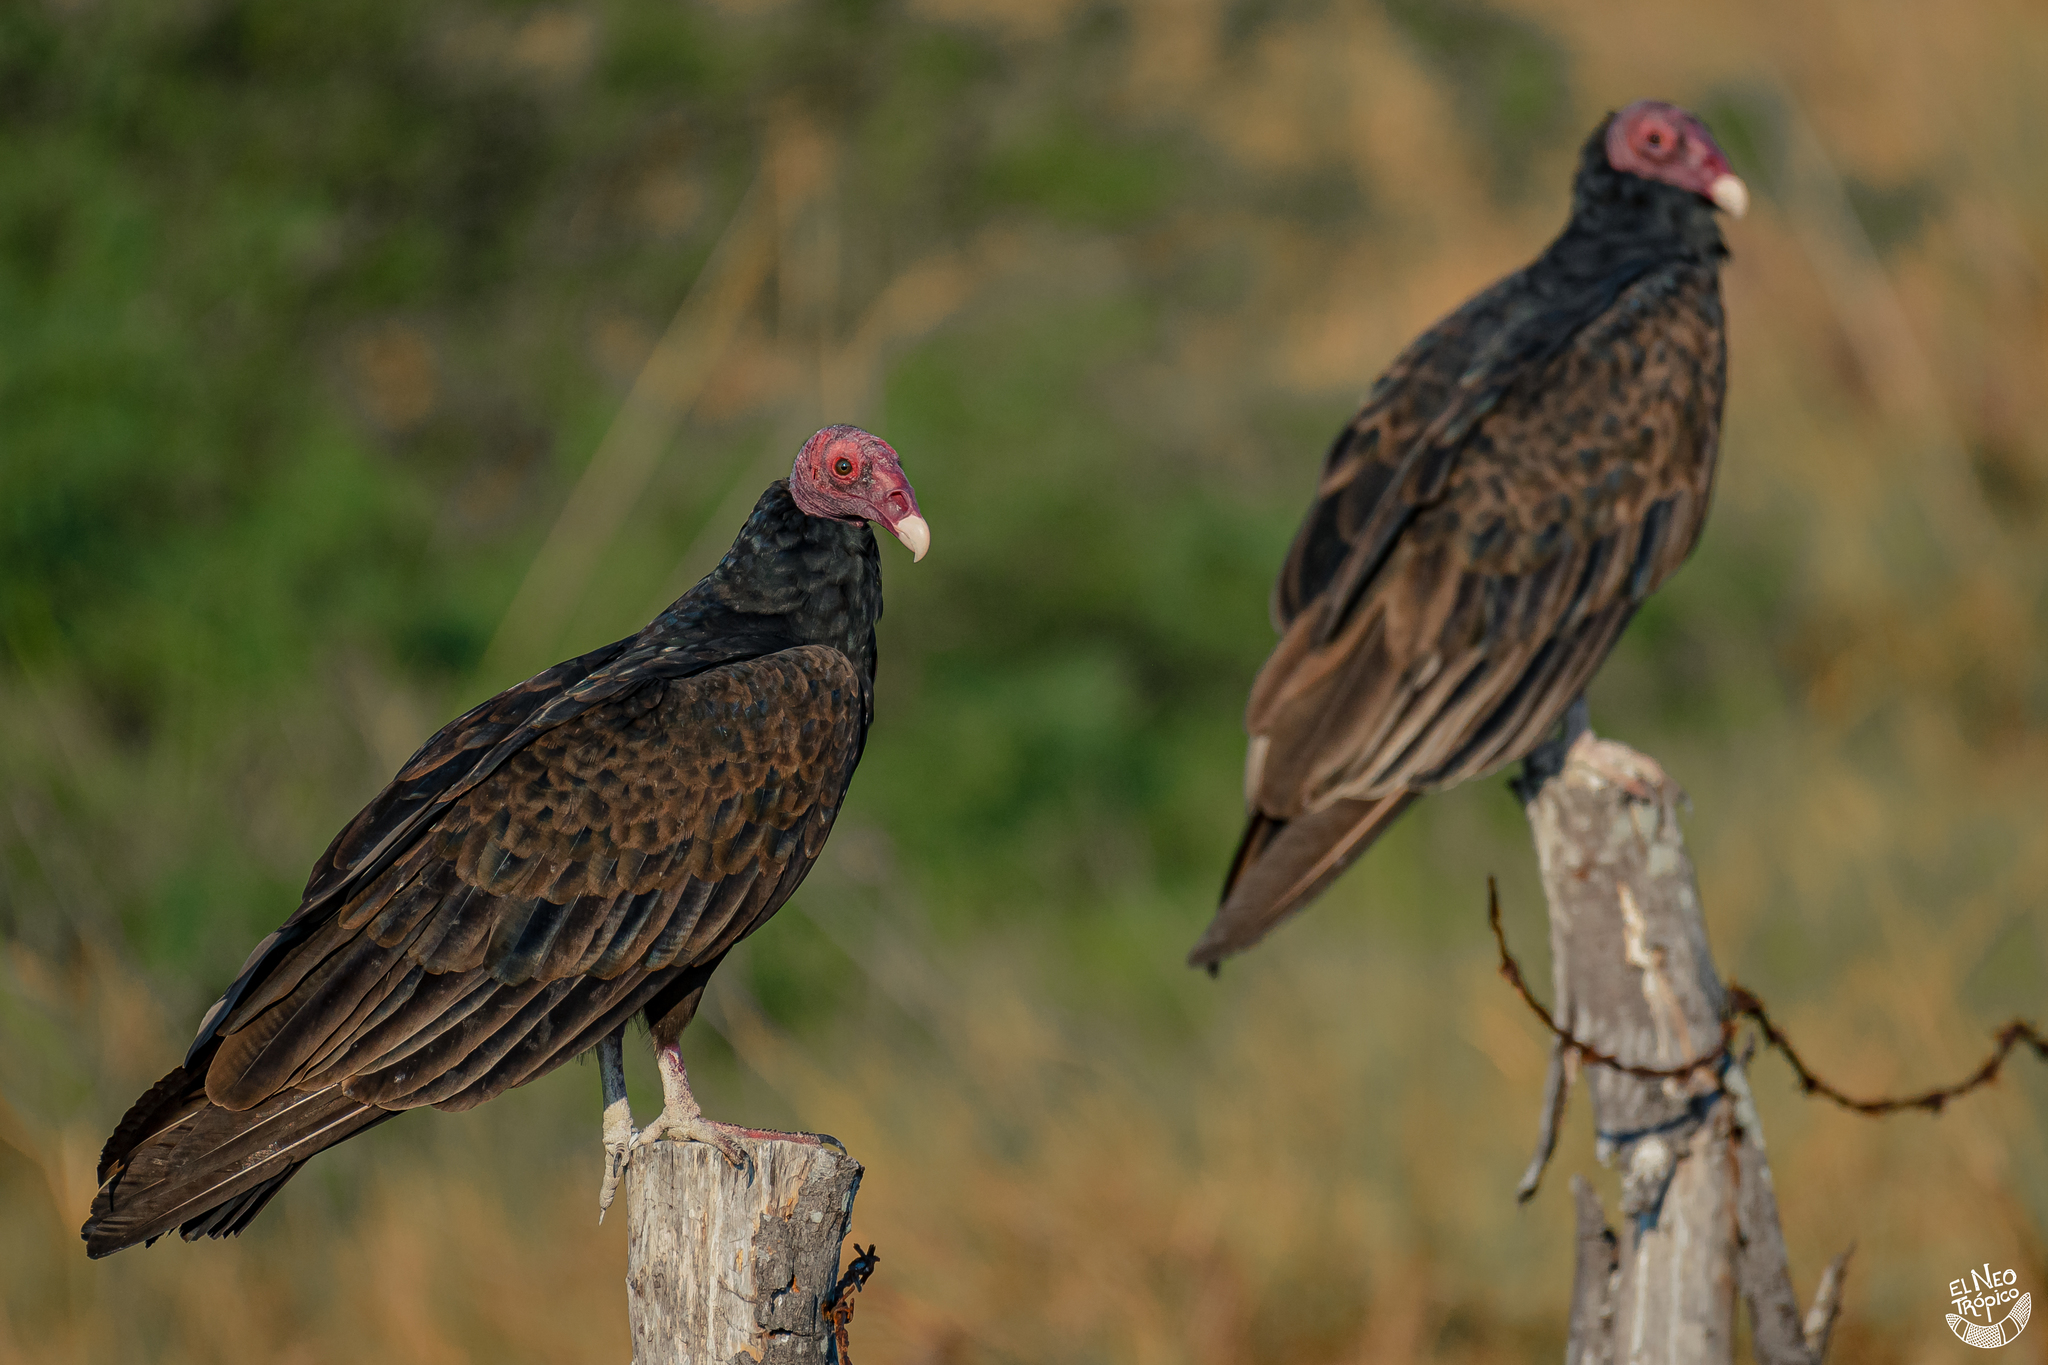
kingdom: Animalia
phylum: Chordata
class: Aves
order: Accipitriformes
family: Cathartidae
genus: Cathartes
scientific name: Cathartes aura
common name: Turkey vulture
